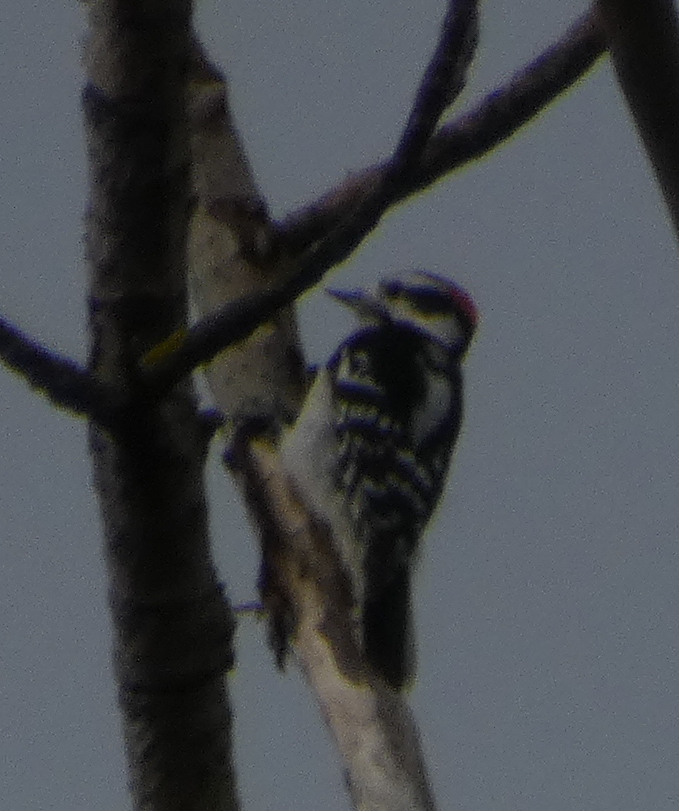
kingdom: Animalia
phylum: Chordata
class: Aves
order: Piciformes
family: Picidae
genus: Dryobates
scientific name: Dryobates pubescens
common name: Downy woodpecker
